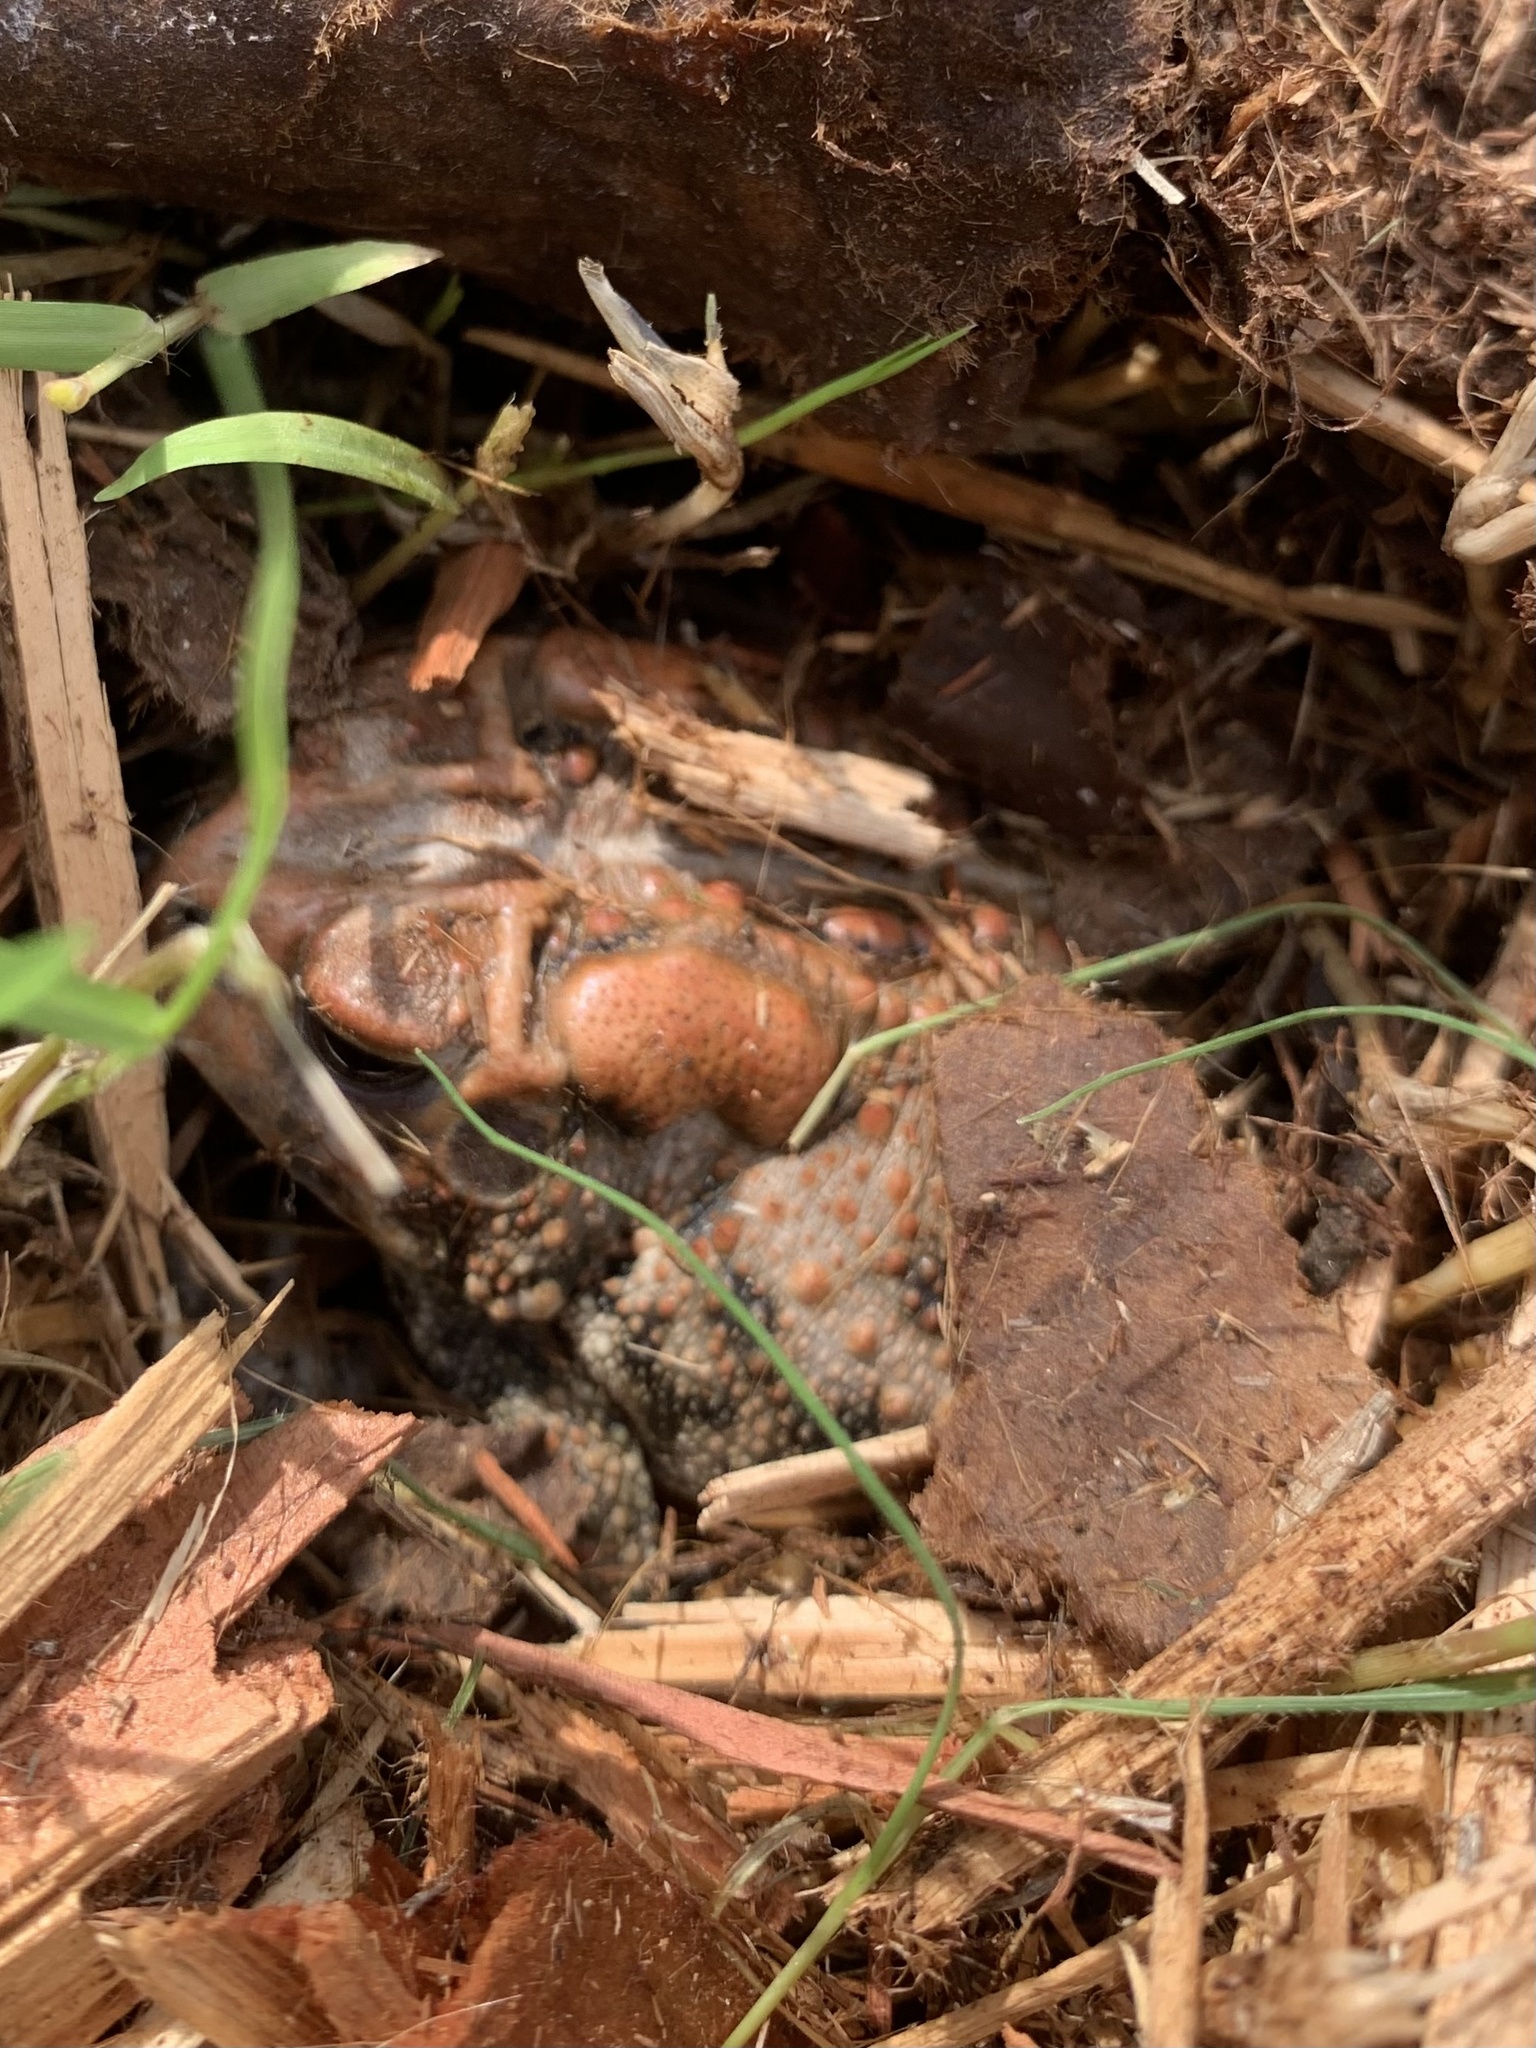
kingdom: Animalia
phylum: Chordata
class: Amphibia
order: Anura
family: Bufonidae
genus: Anaxyrus
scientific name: Anaxyrus americanus
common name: American toad
